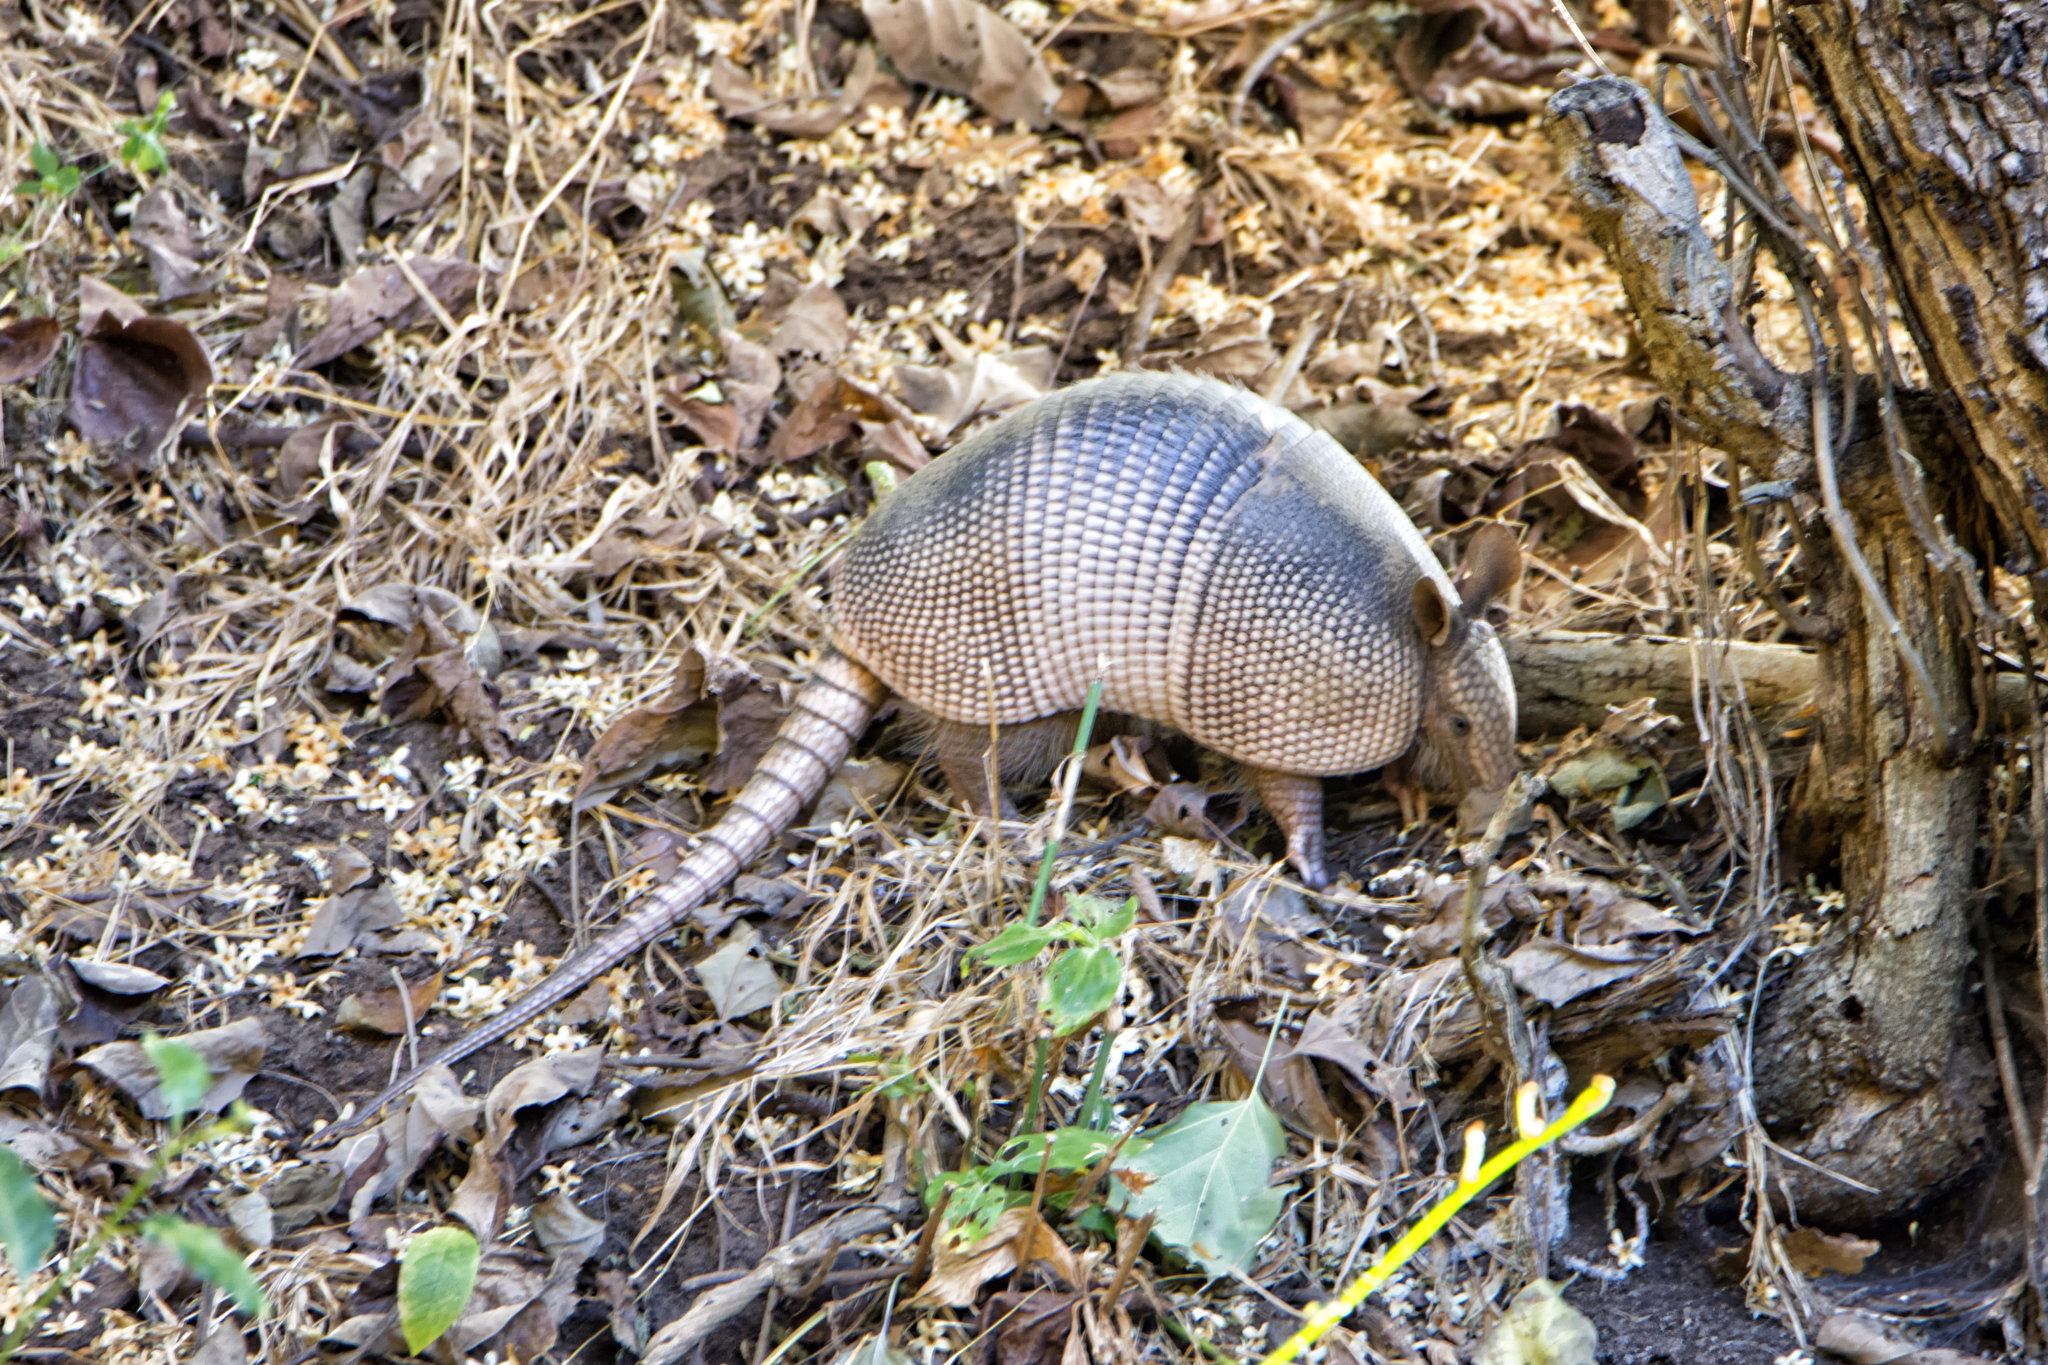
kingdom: Animalia
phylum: Chordata
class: Mammalia
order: Cingulata
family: Dasypodidae
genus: Dasypus
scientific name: Dasypus novemcinctus
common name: Nine-banded armadillo
